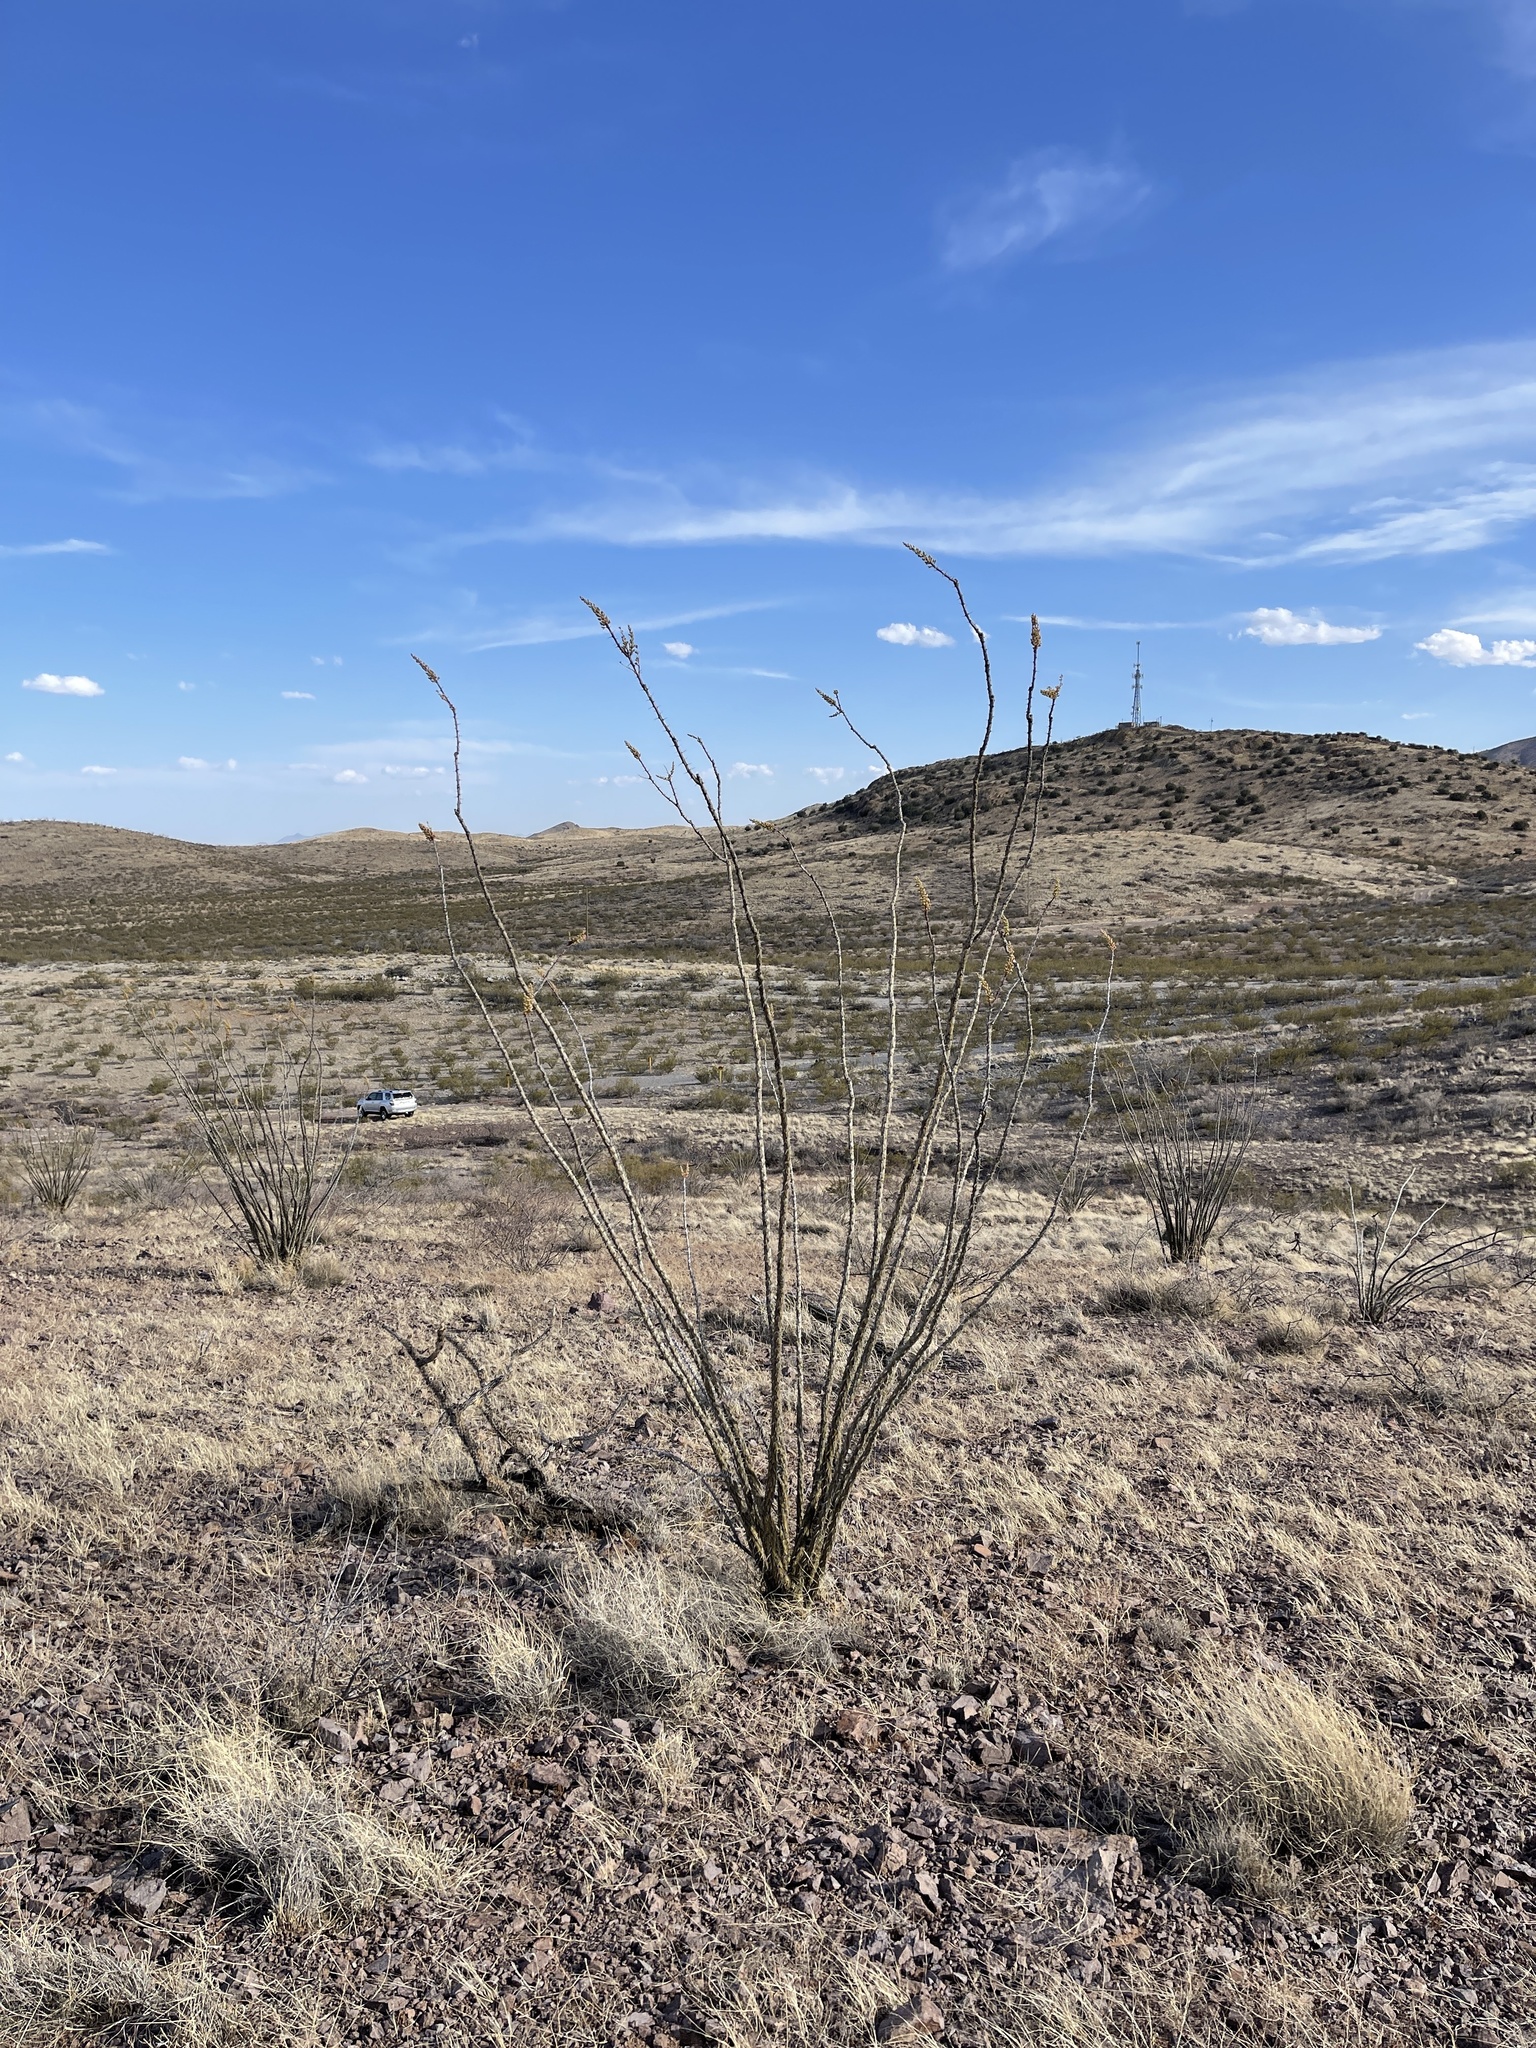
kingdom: Plantae
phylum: Tracheophyta
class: Magnoliopsida
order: Ericales
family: Fouquieriaceae
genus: Fouquieria
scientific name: Fouquieria splendens
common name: Vine-cactus
